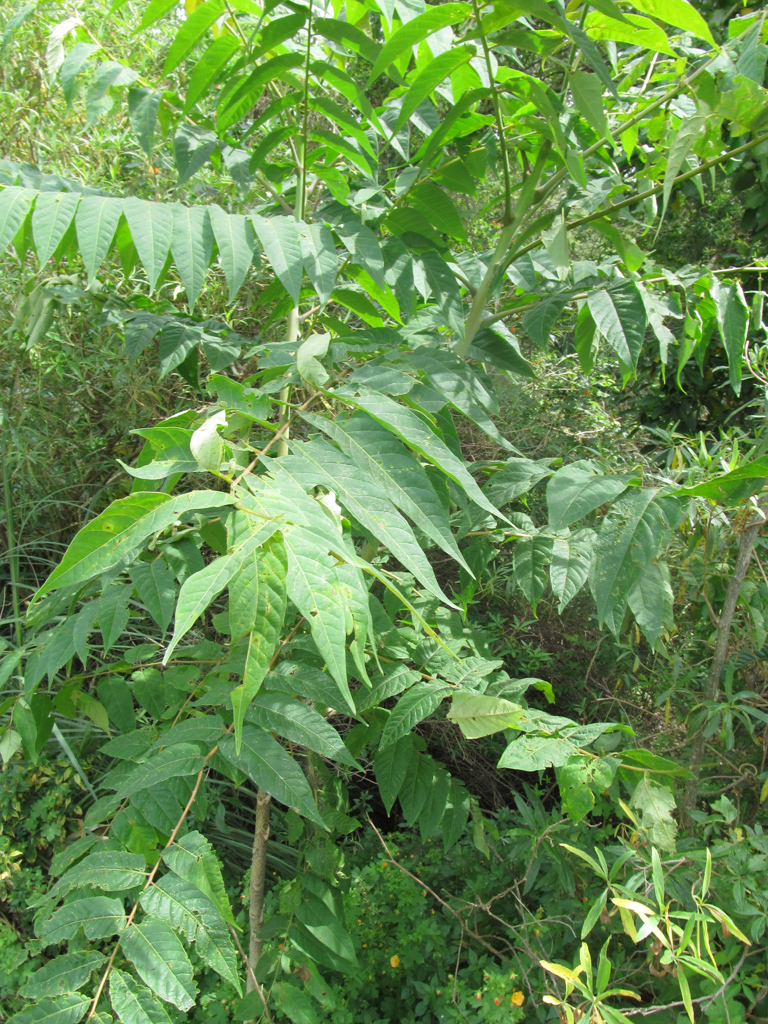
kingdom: Plantae
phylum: Tracheophyta
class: Magnoliopsida
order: Sapindales
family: Simaroubaceae
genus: Ailanthus
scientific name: Ailanthus altissima
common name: Tree-of-heaven
